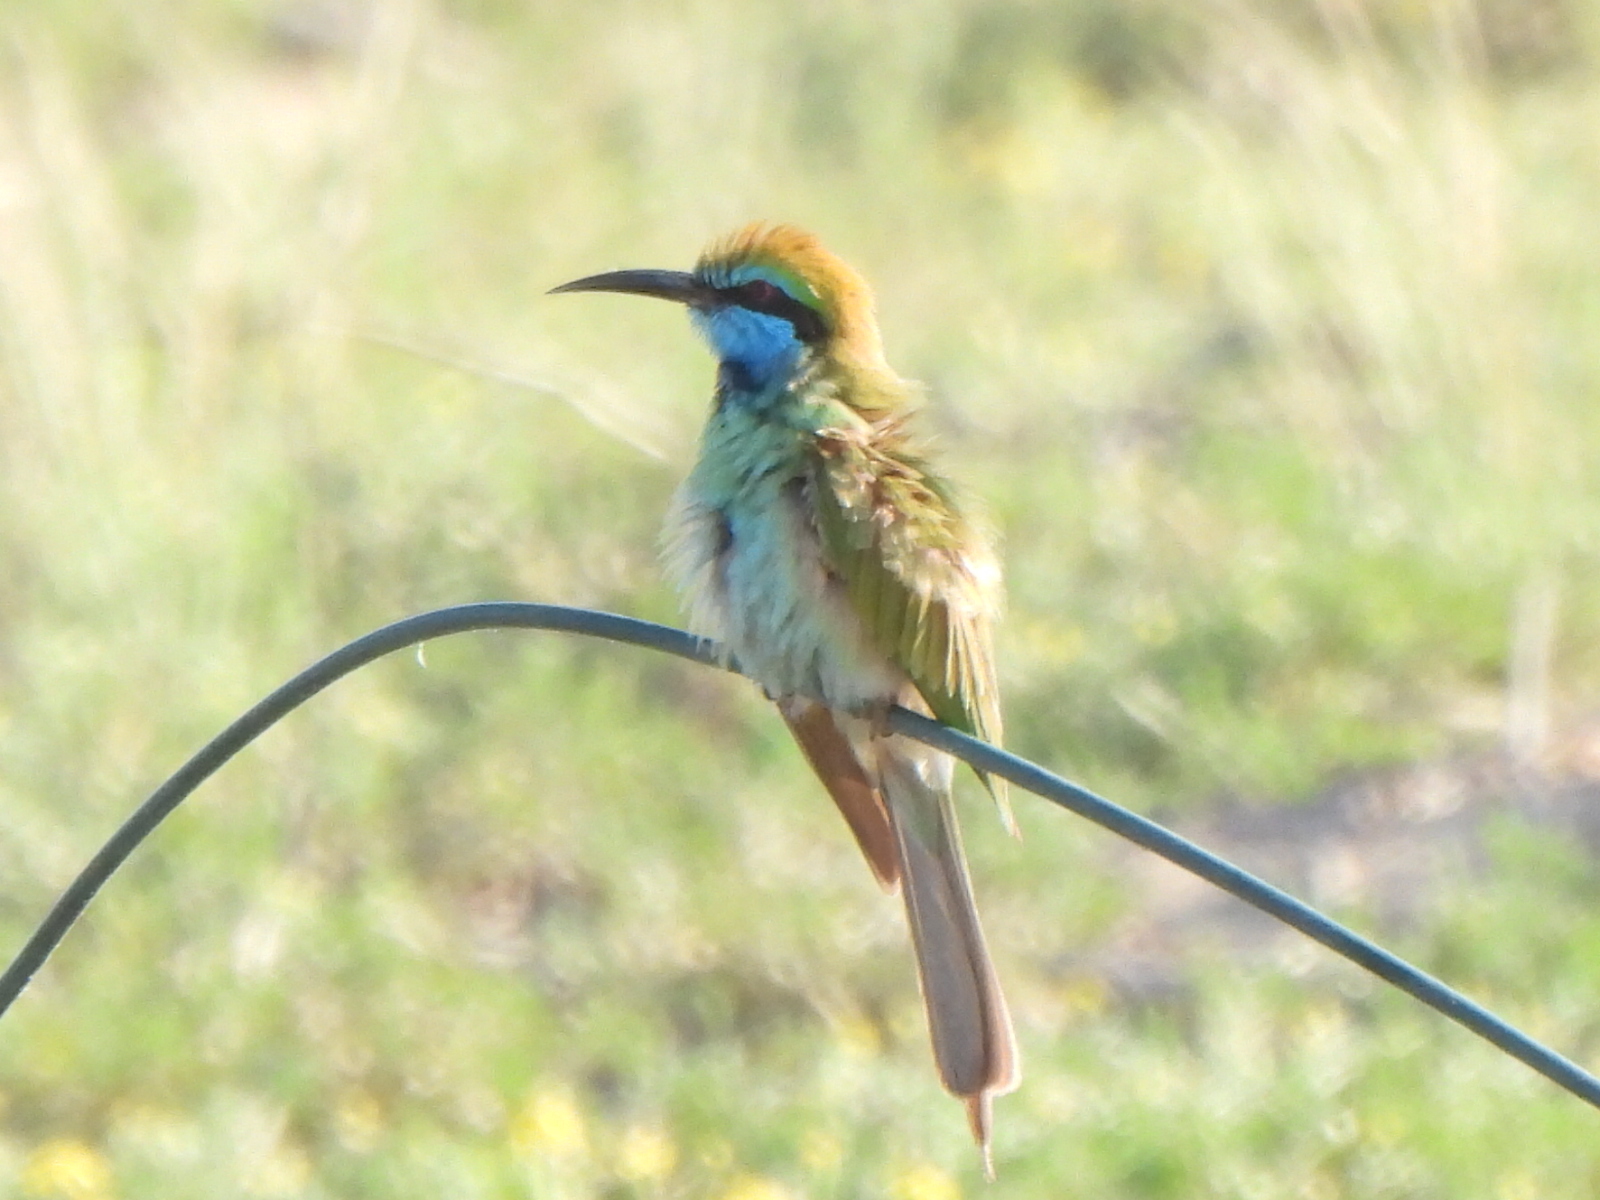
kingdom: Animalia
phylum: Chordata
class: Aves
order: Coraciiformes
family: Meropidae
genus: Merops
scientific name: Merops cyanophrys
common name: Arabian green bee-eater
